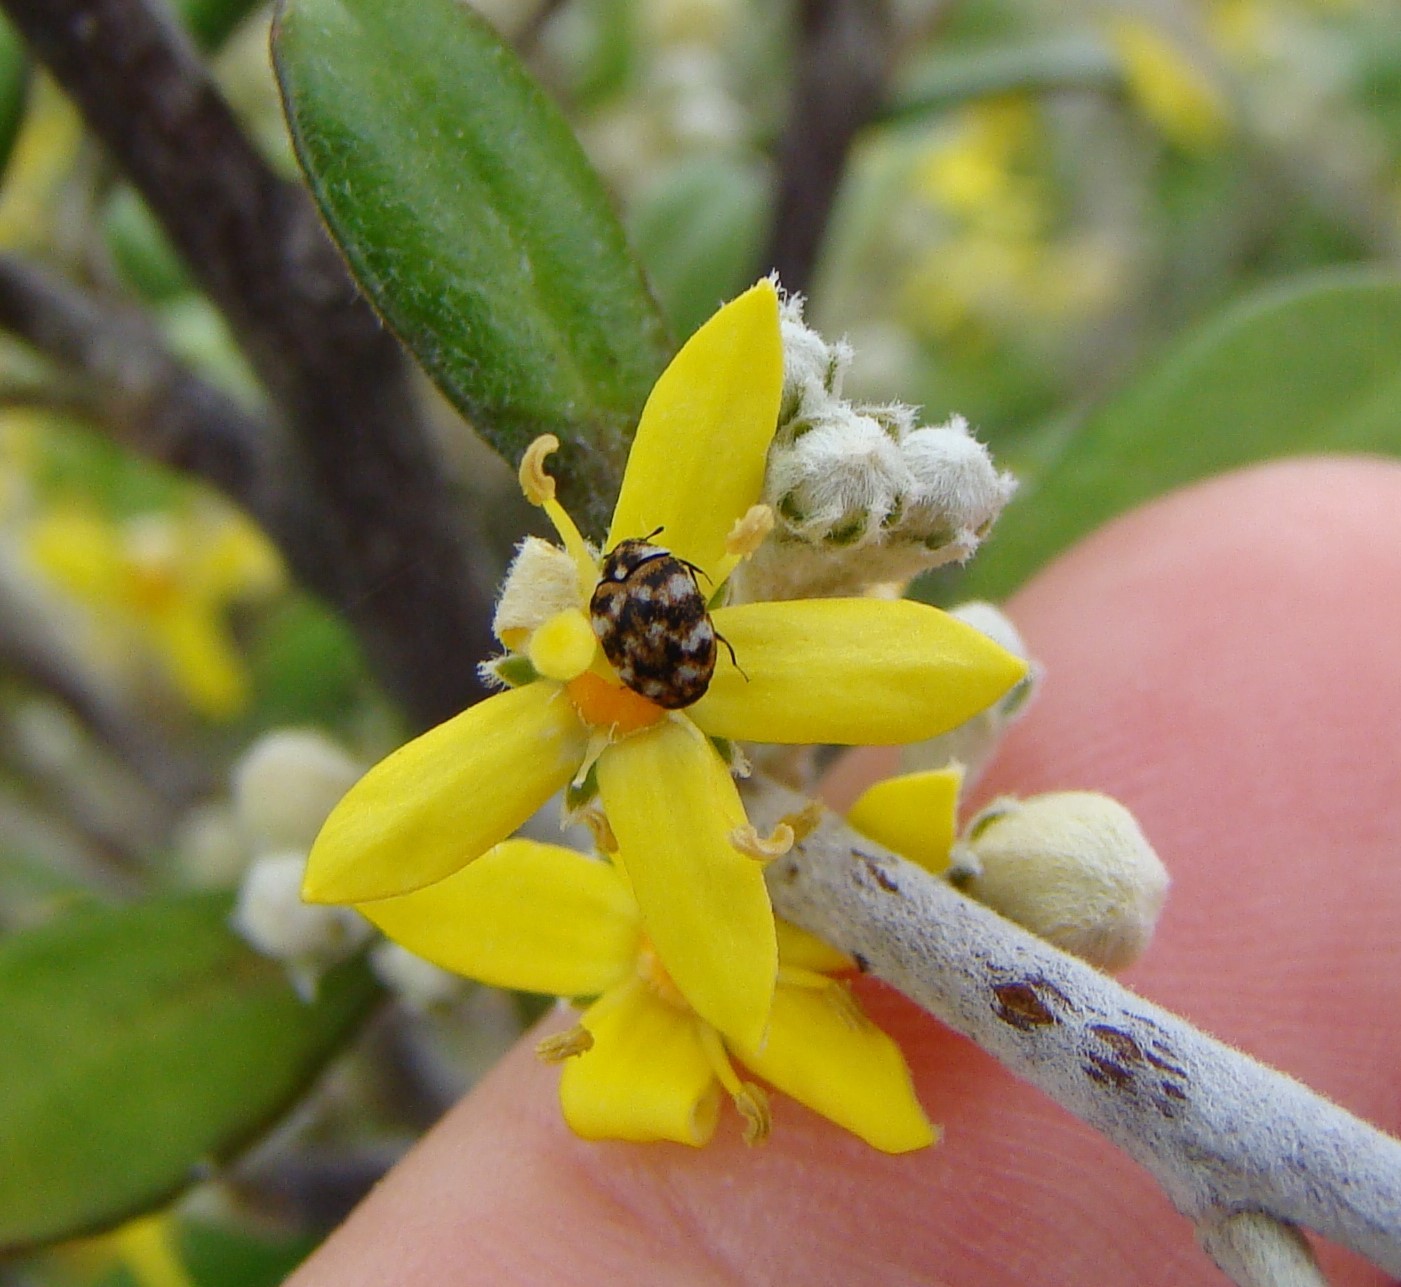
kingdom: Animalia
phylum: Arthropoda
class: Insecta
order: Coleoptera
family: Dermestidae
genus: Anthrenus
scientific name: Anthrenus verbasci
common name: Varied carpet beetle
